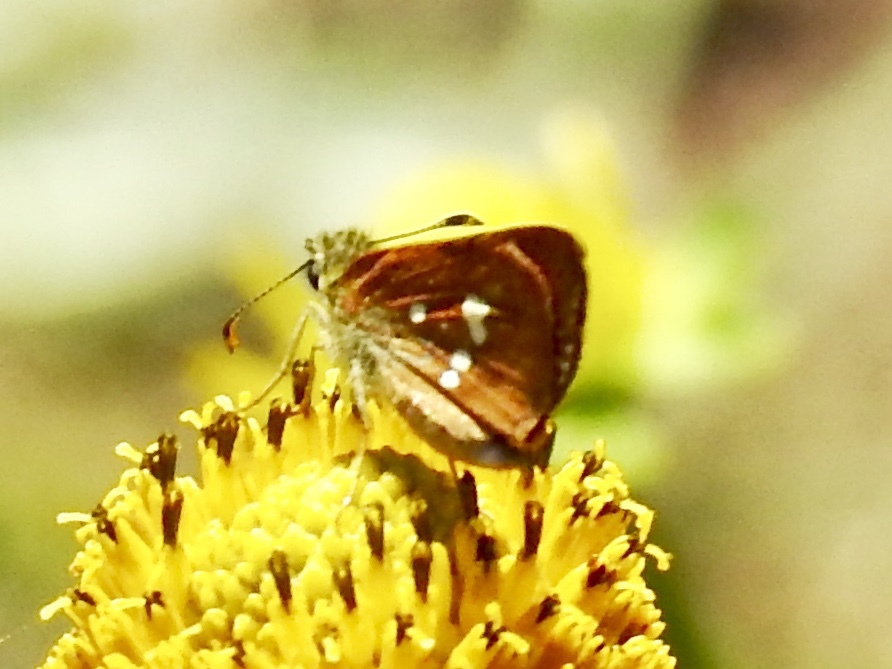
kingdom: Animalia
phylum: Arthropoda
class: Insecta
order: Lepidoptera
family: Hesperiidae
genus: Piruna
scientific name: Piruna polingii
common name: Four-spotted skipperling
